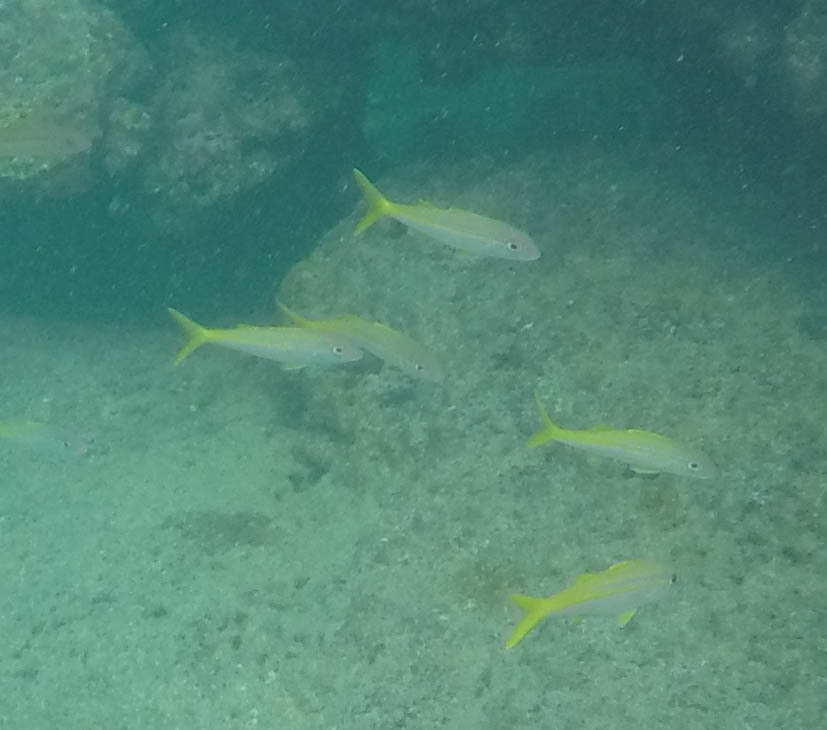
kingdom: Animalia
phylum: Chordata
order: Perciformes
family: Mullidae
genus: Mulloidichthys
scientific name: Mulloidichthys vanicolensis
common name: Yellowfin goatfish
